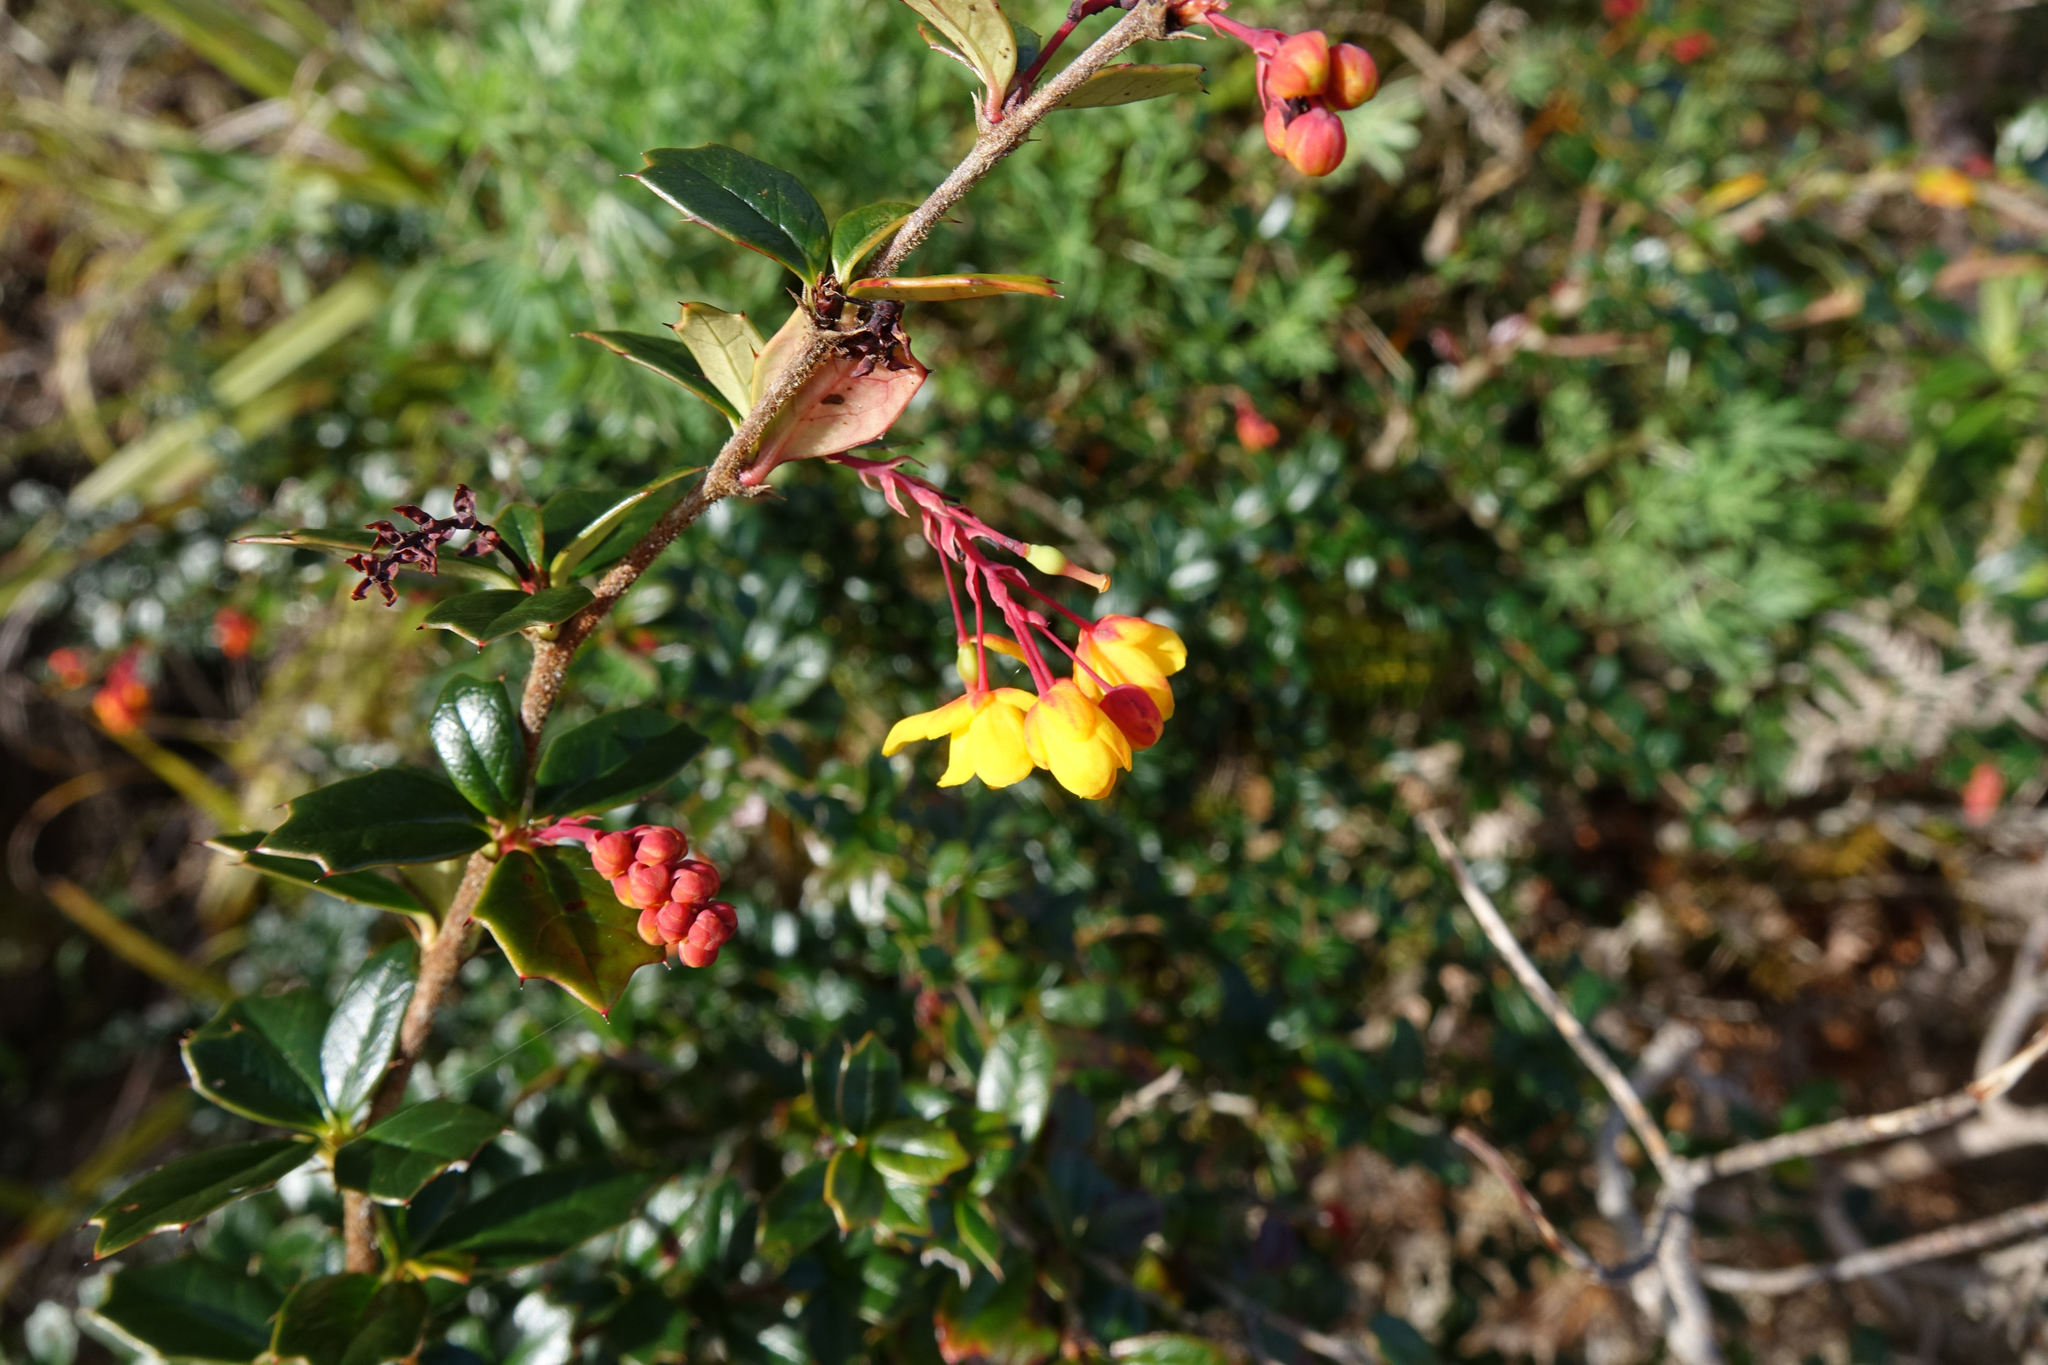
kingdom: Plantae
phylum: Tracheophyta
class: Magnoliopsida
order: Ranunculales
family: Berberidaceae
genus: Berberis
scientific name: Berberis darwinii
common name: Darwin's barberry
